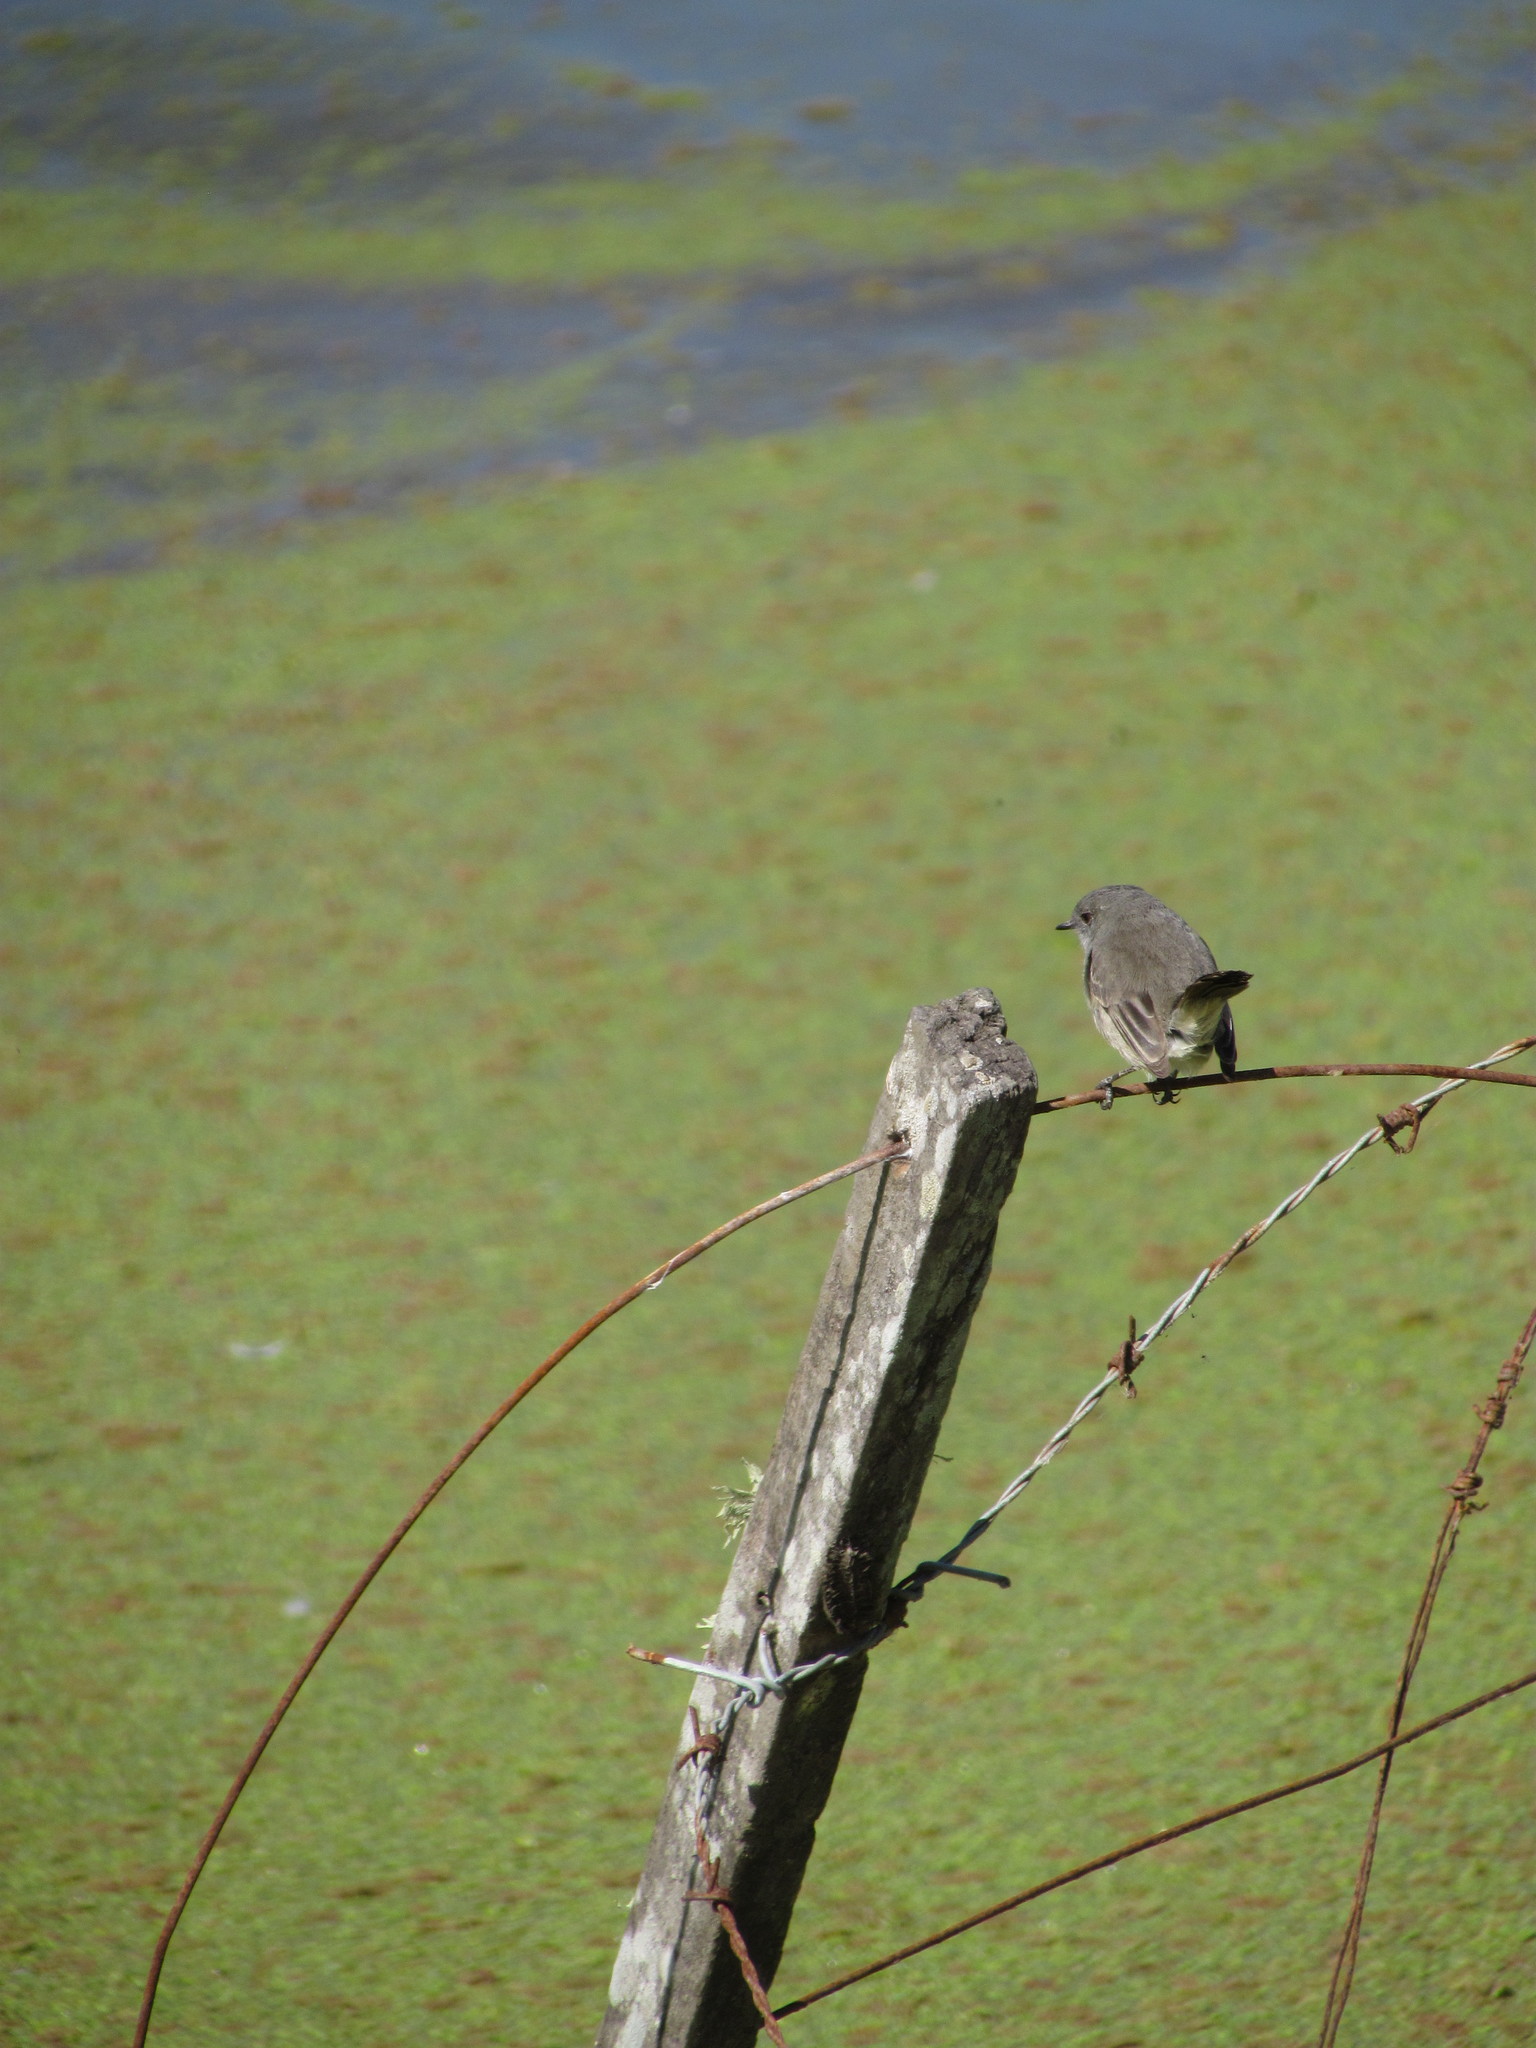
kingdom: Animalia
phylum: Chordata
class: Aves
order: Passeriformes
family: Tyrannidae
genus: Serpophaga
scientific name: Serpophaga nigricans
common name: Sooty tyrannulet
